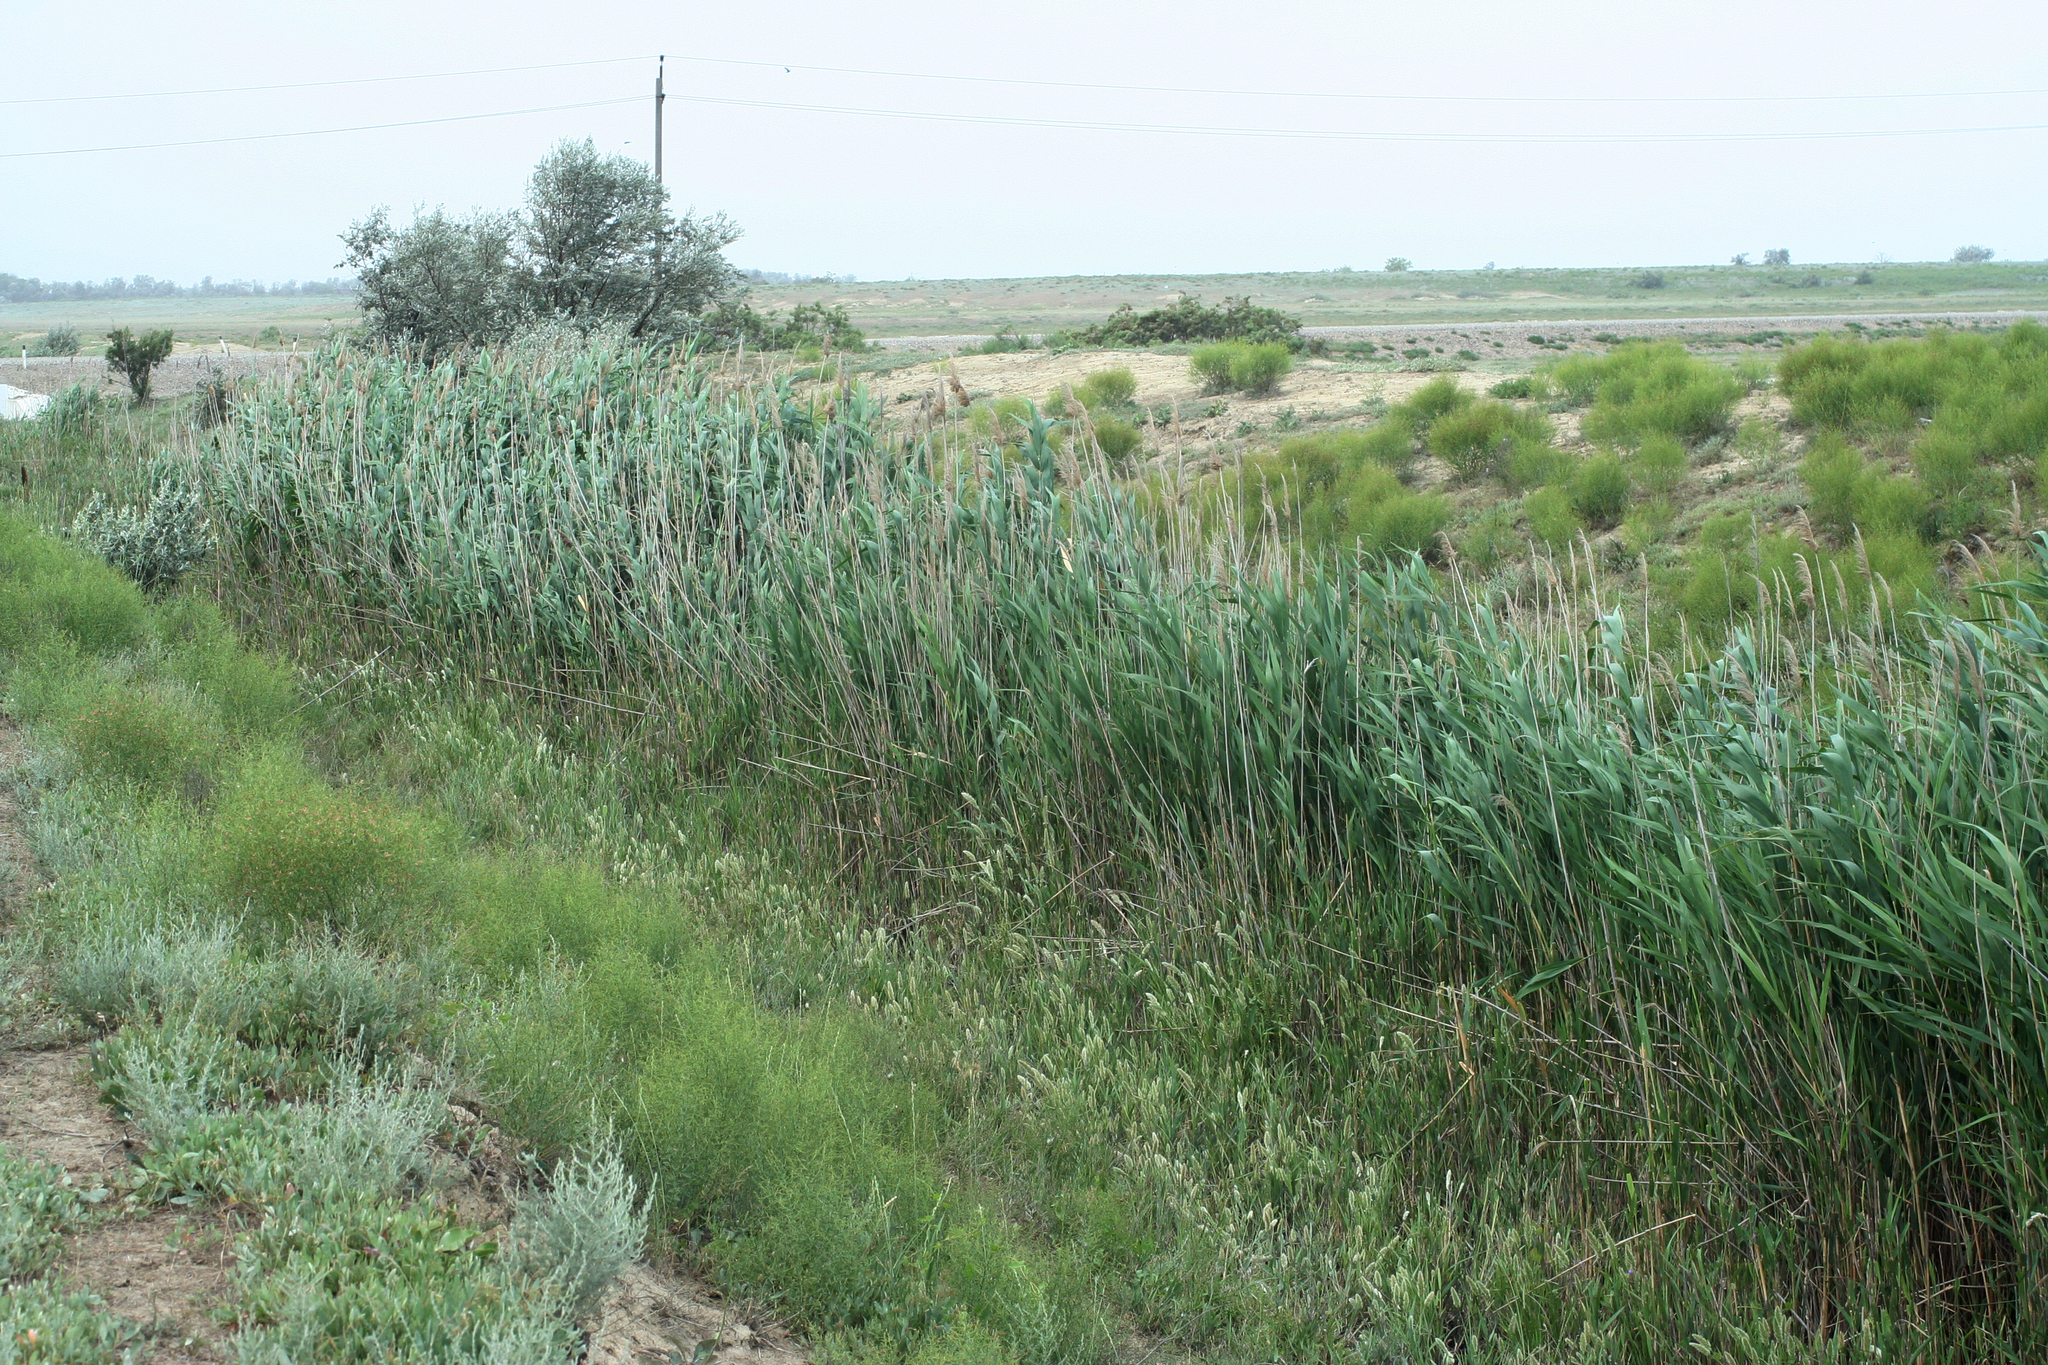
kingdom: Plantae
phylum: Tracheophyta
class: Liliopsida
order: Poales
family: Poaceae
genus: Phragmites
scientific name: Phragmites australis
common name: Common reed
